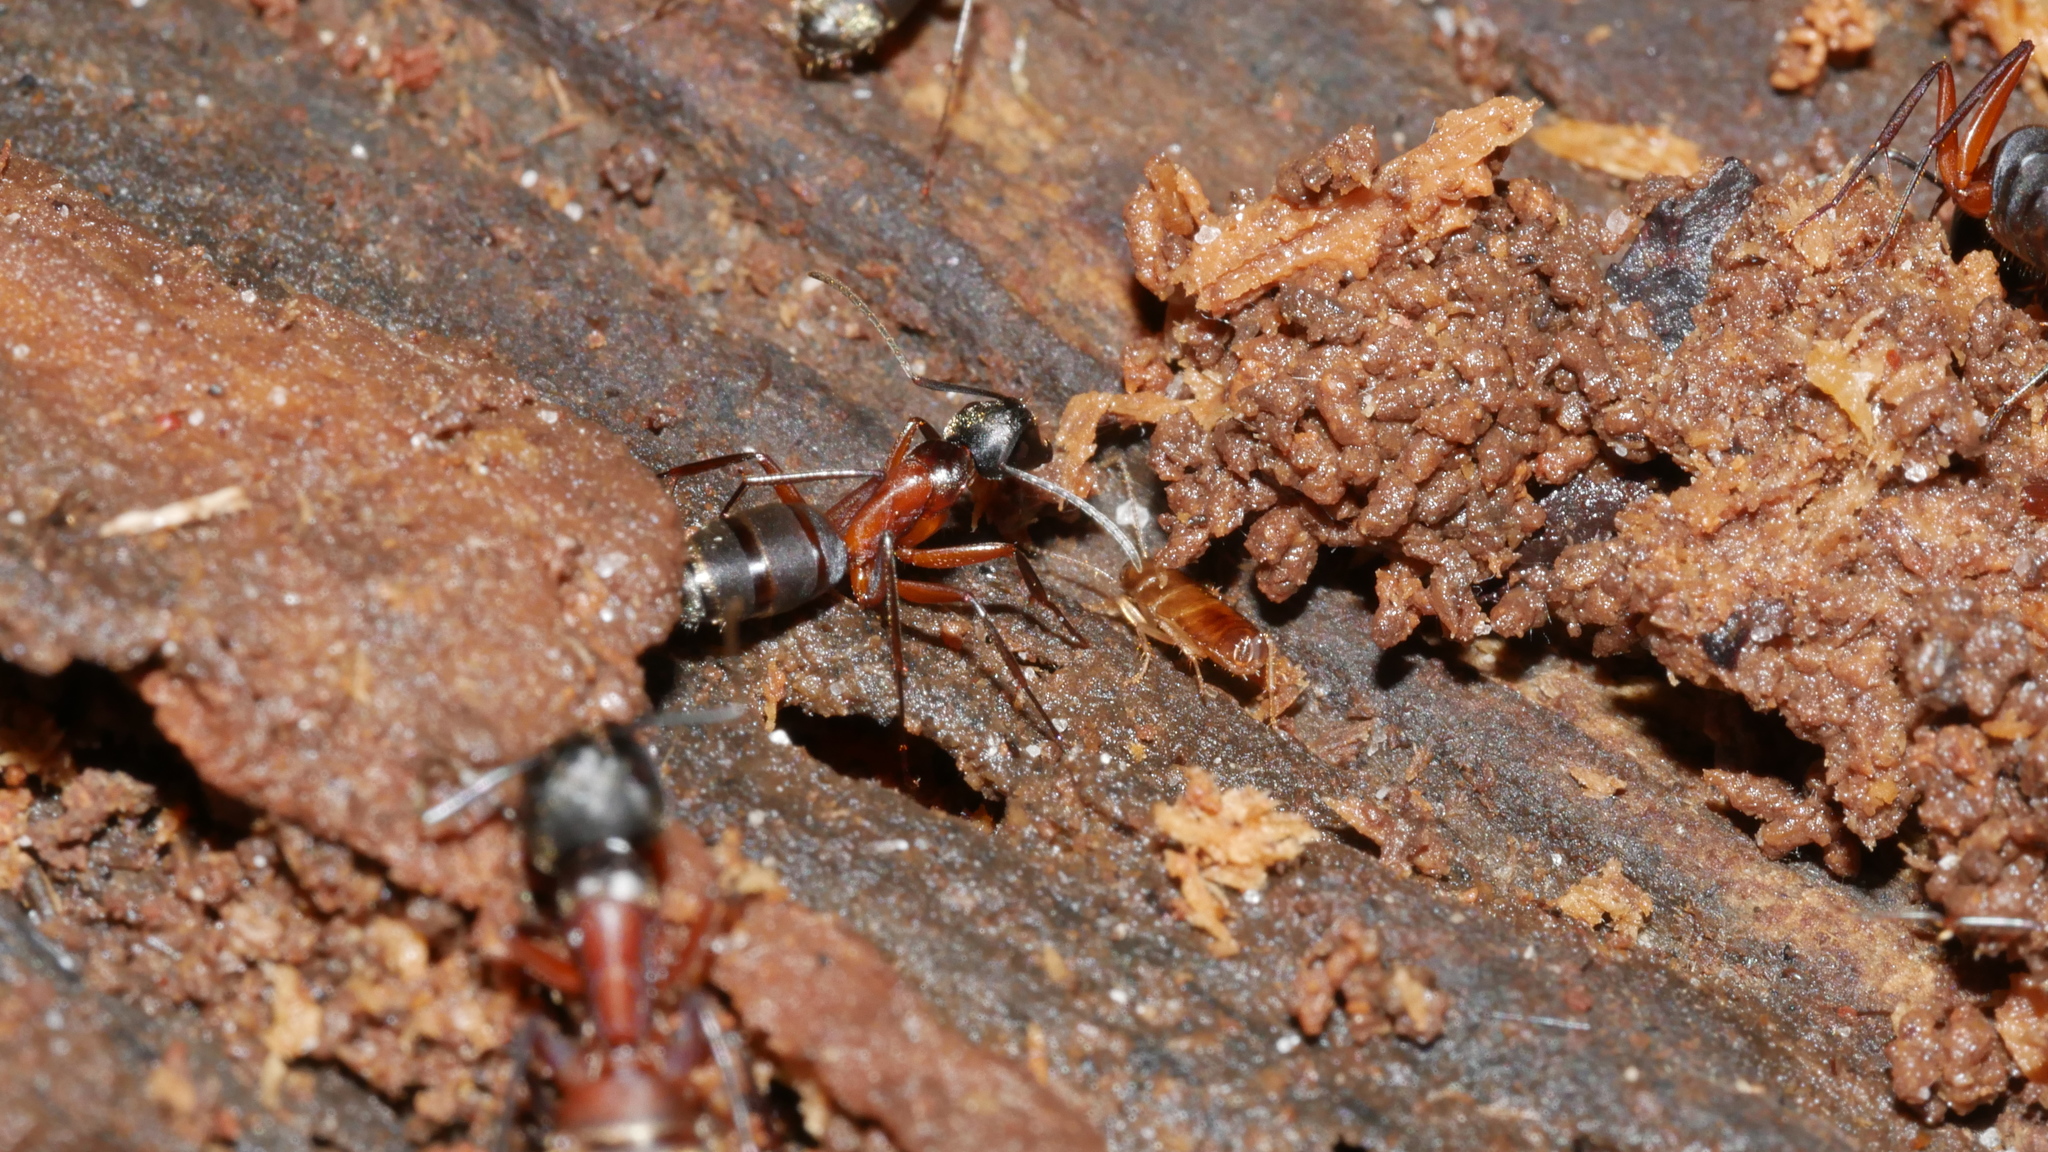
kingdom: Animalia
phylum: Arthropoda
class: Insecta
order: Hymenoptera
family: Formicidae
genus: Camponotus
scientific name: Camponotus chromaiodes
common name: Red carpenter ant
